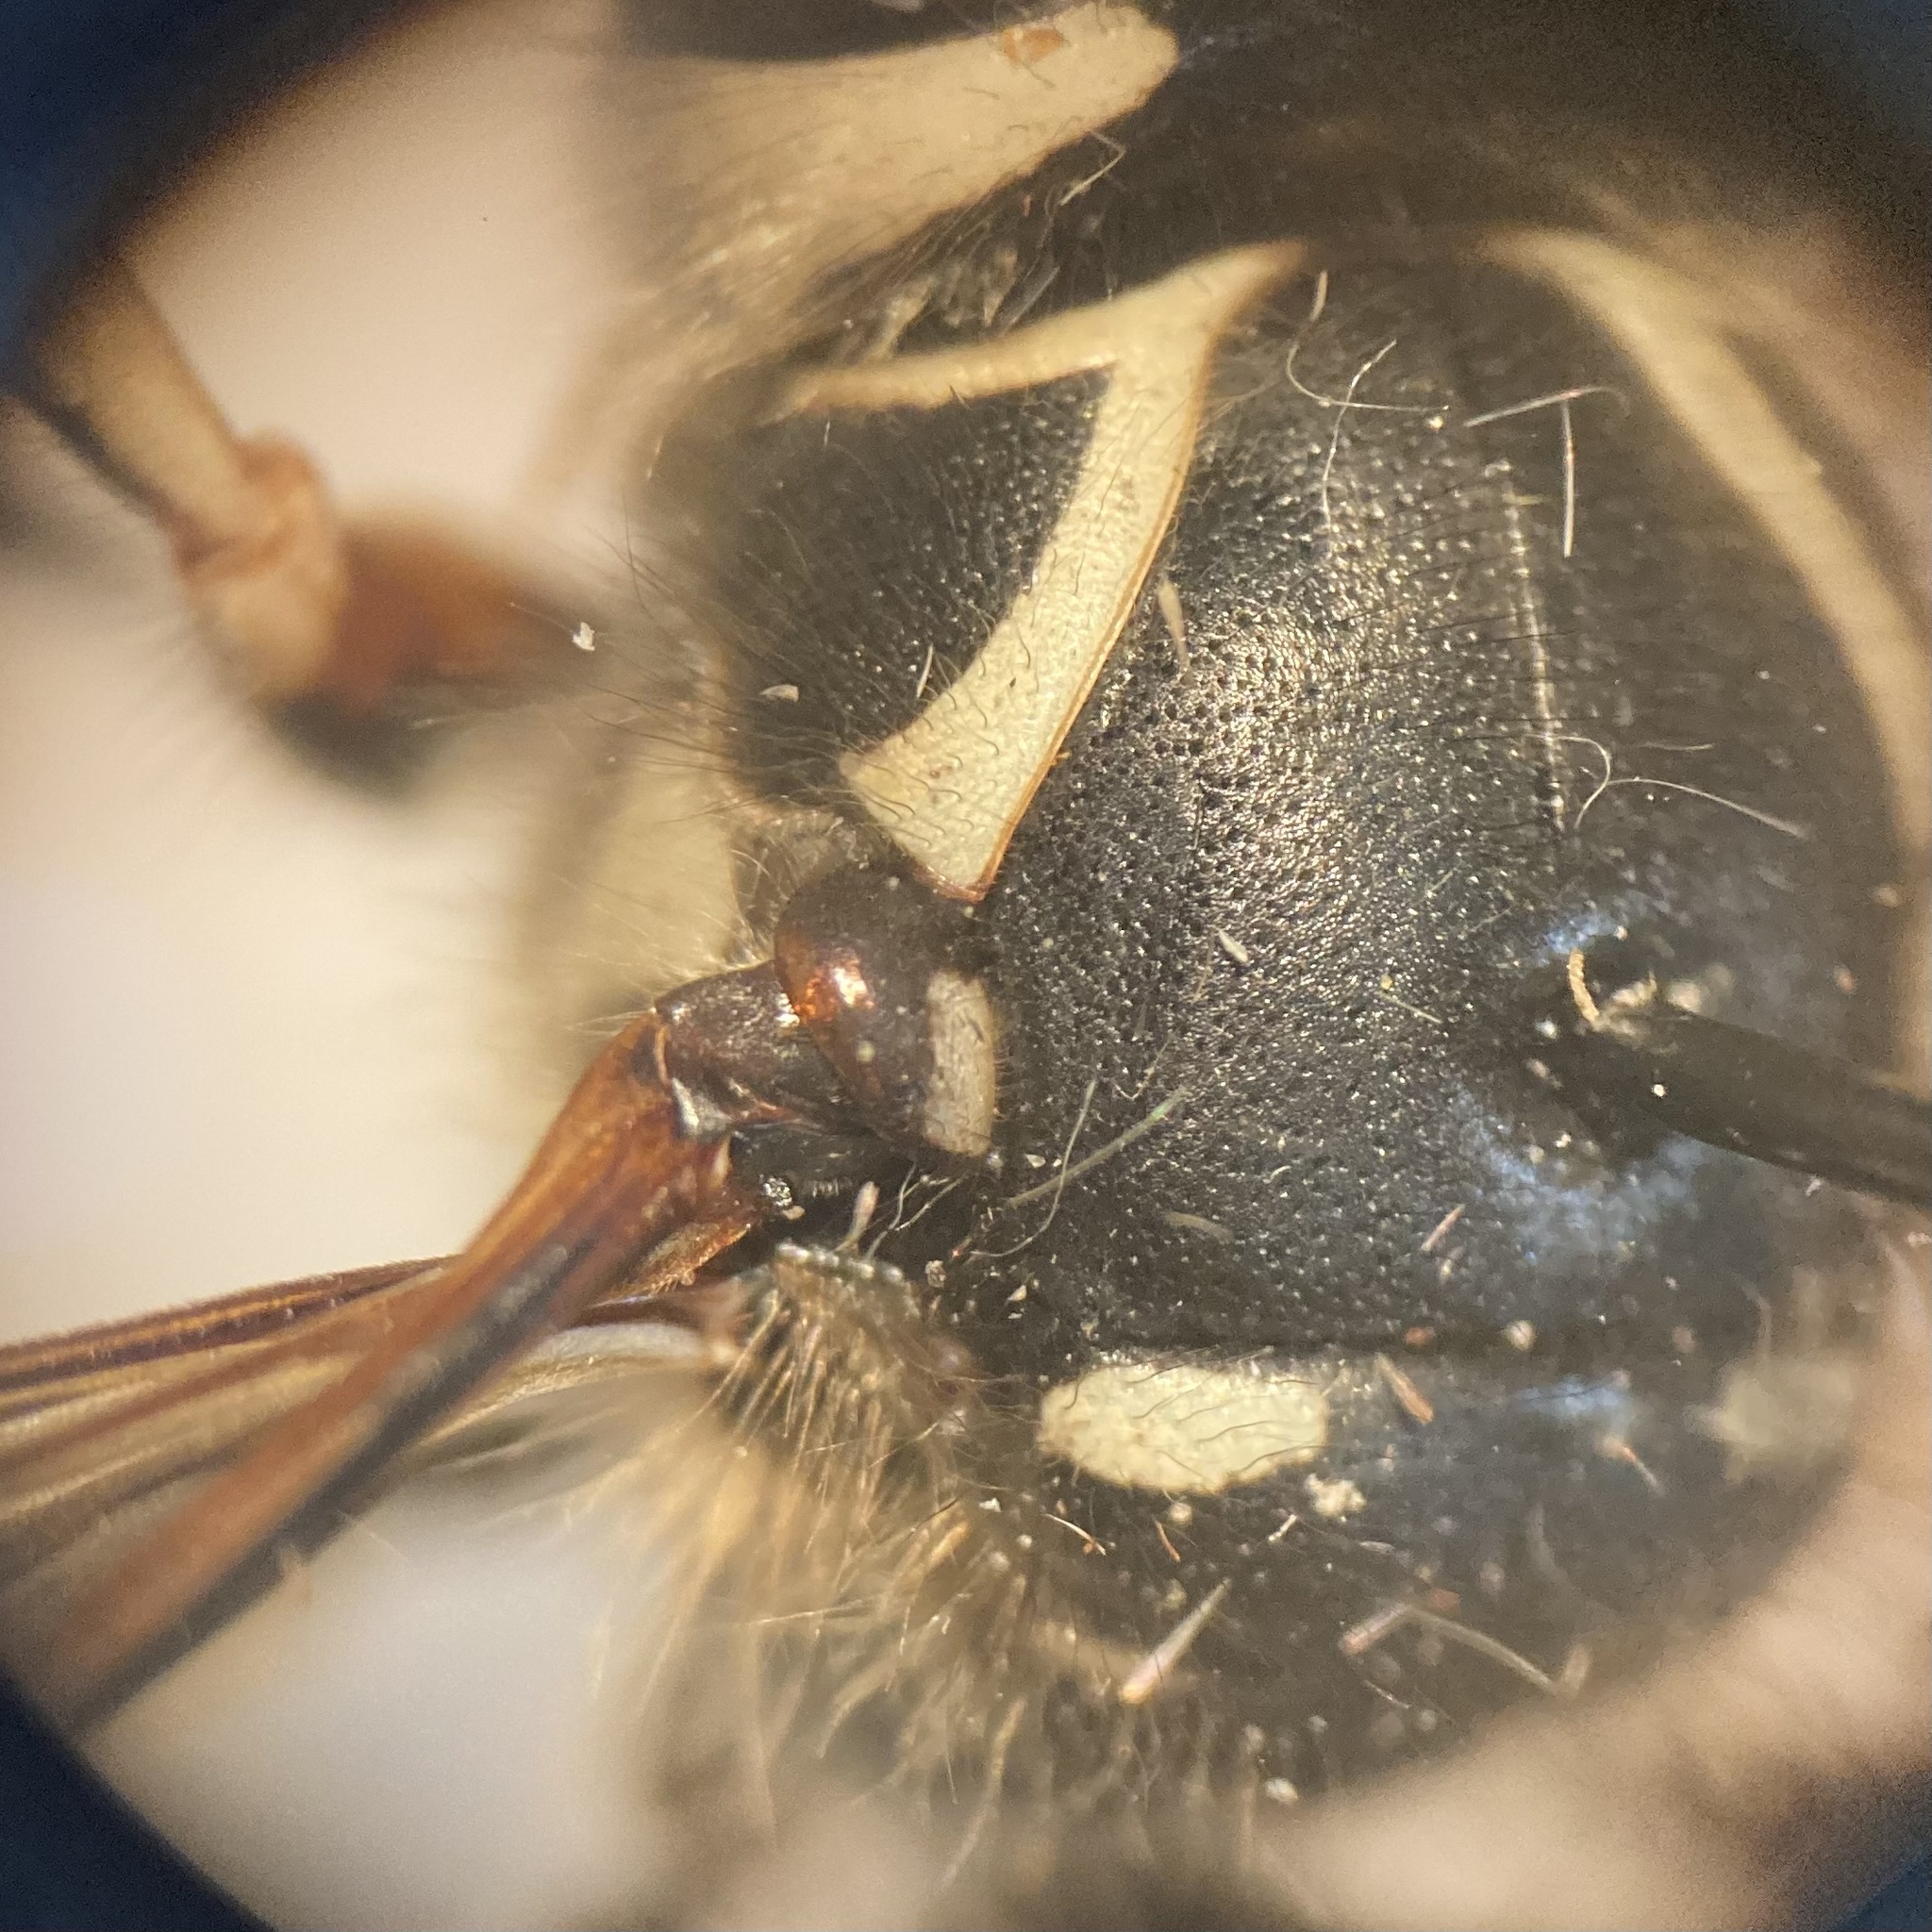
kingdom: Animalia
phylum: Arthropoda
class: Insecta
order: Hymenoptera
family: Vespidae
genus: Dolichovespula
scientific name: Dolichovespula maculata
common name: Bald-faced hornet
